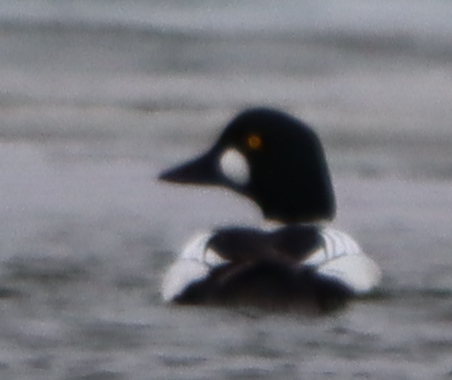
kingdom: Animalia
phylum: Chordata
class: Aves
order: Anseriformes
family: Anatidae
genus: Bucephala
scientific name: Bucephala clangula
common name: Common goldeneye
